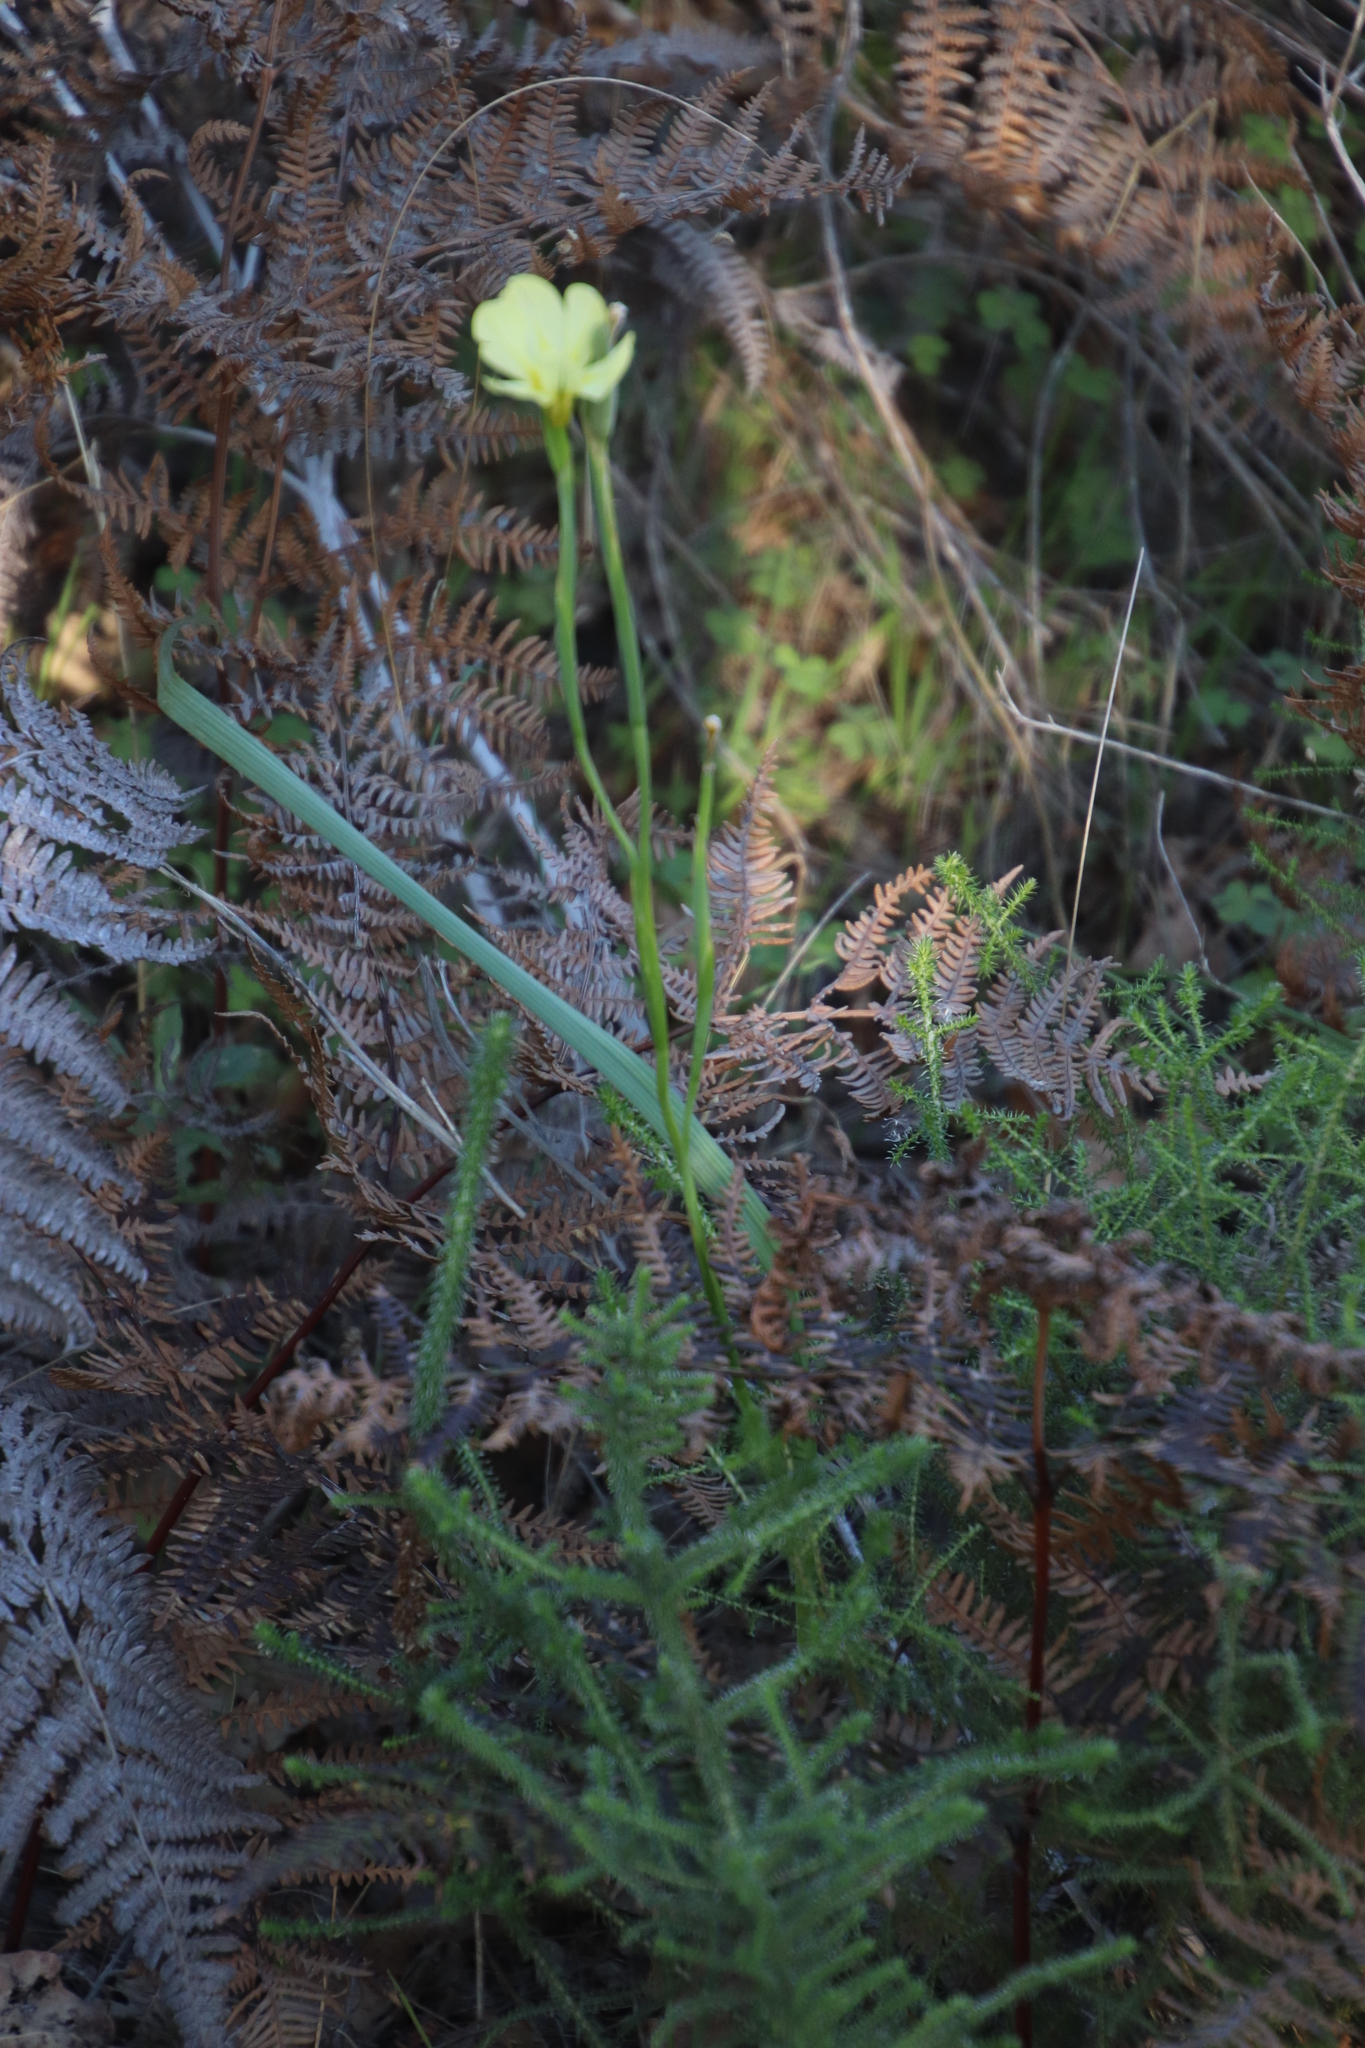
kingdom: Plantae
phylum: Tracheophyta
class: Liliopsida
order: Asparagales
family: Iridaceae
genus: Moraea
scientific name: Moraea collina
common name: Cape-tulip
